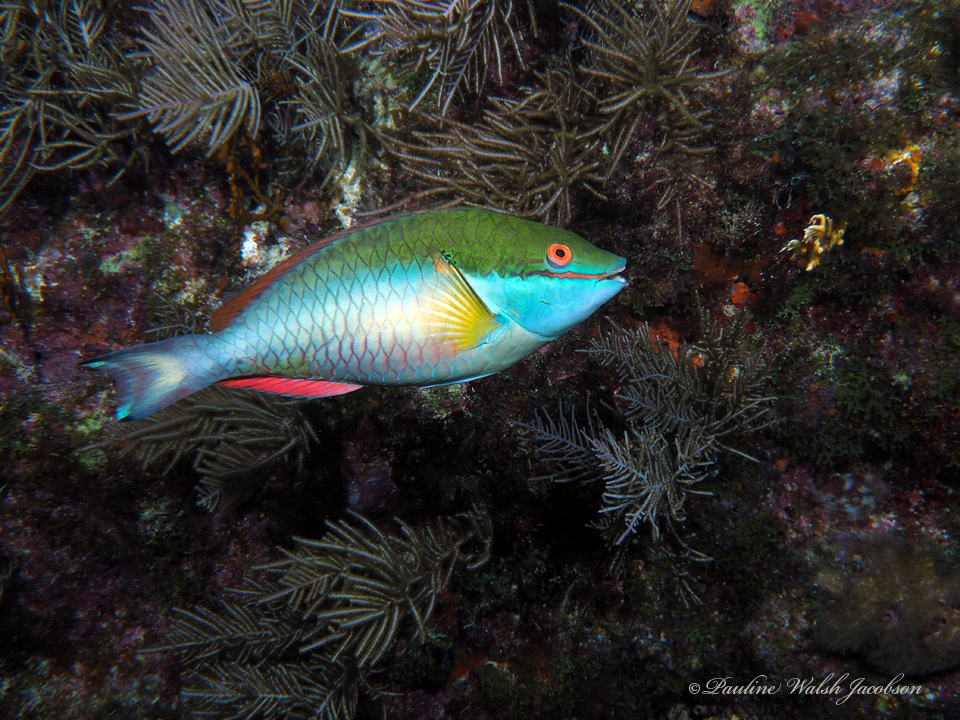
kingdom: Animalia
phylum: Chordata
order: Perciformes
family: Scaridae
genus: Sparisoma
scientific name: Sparisoma aurofrenatum
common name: Redband parrotfish
